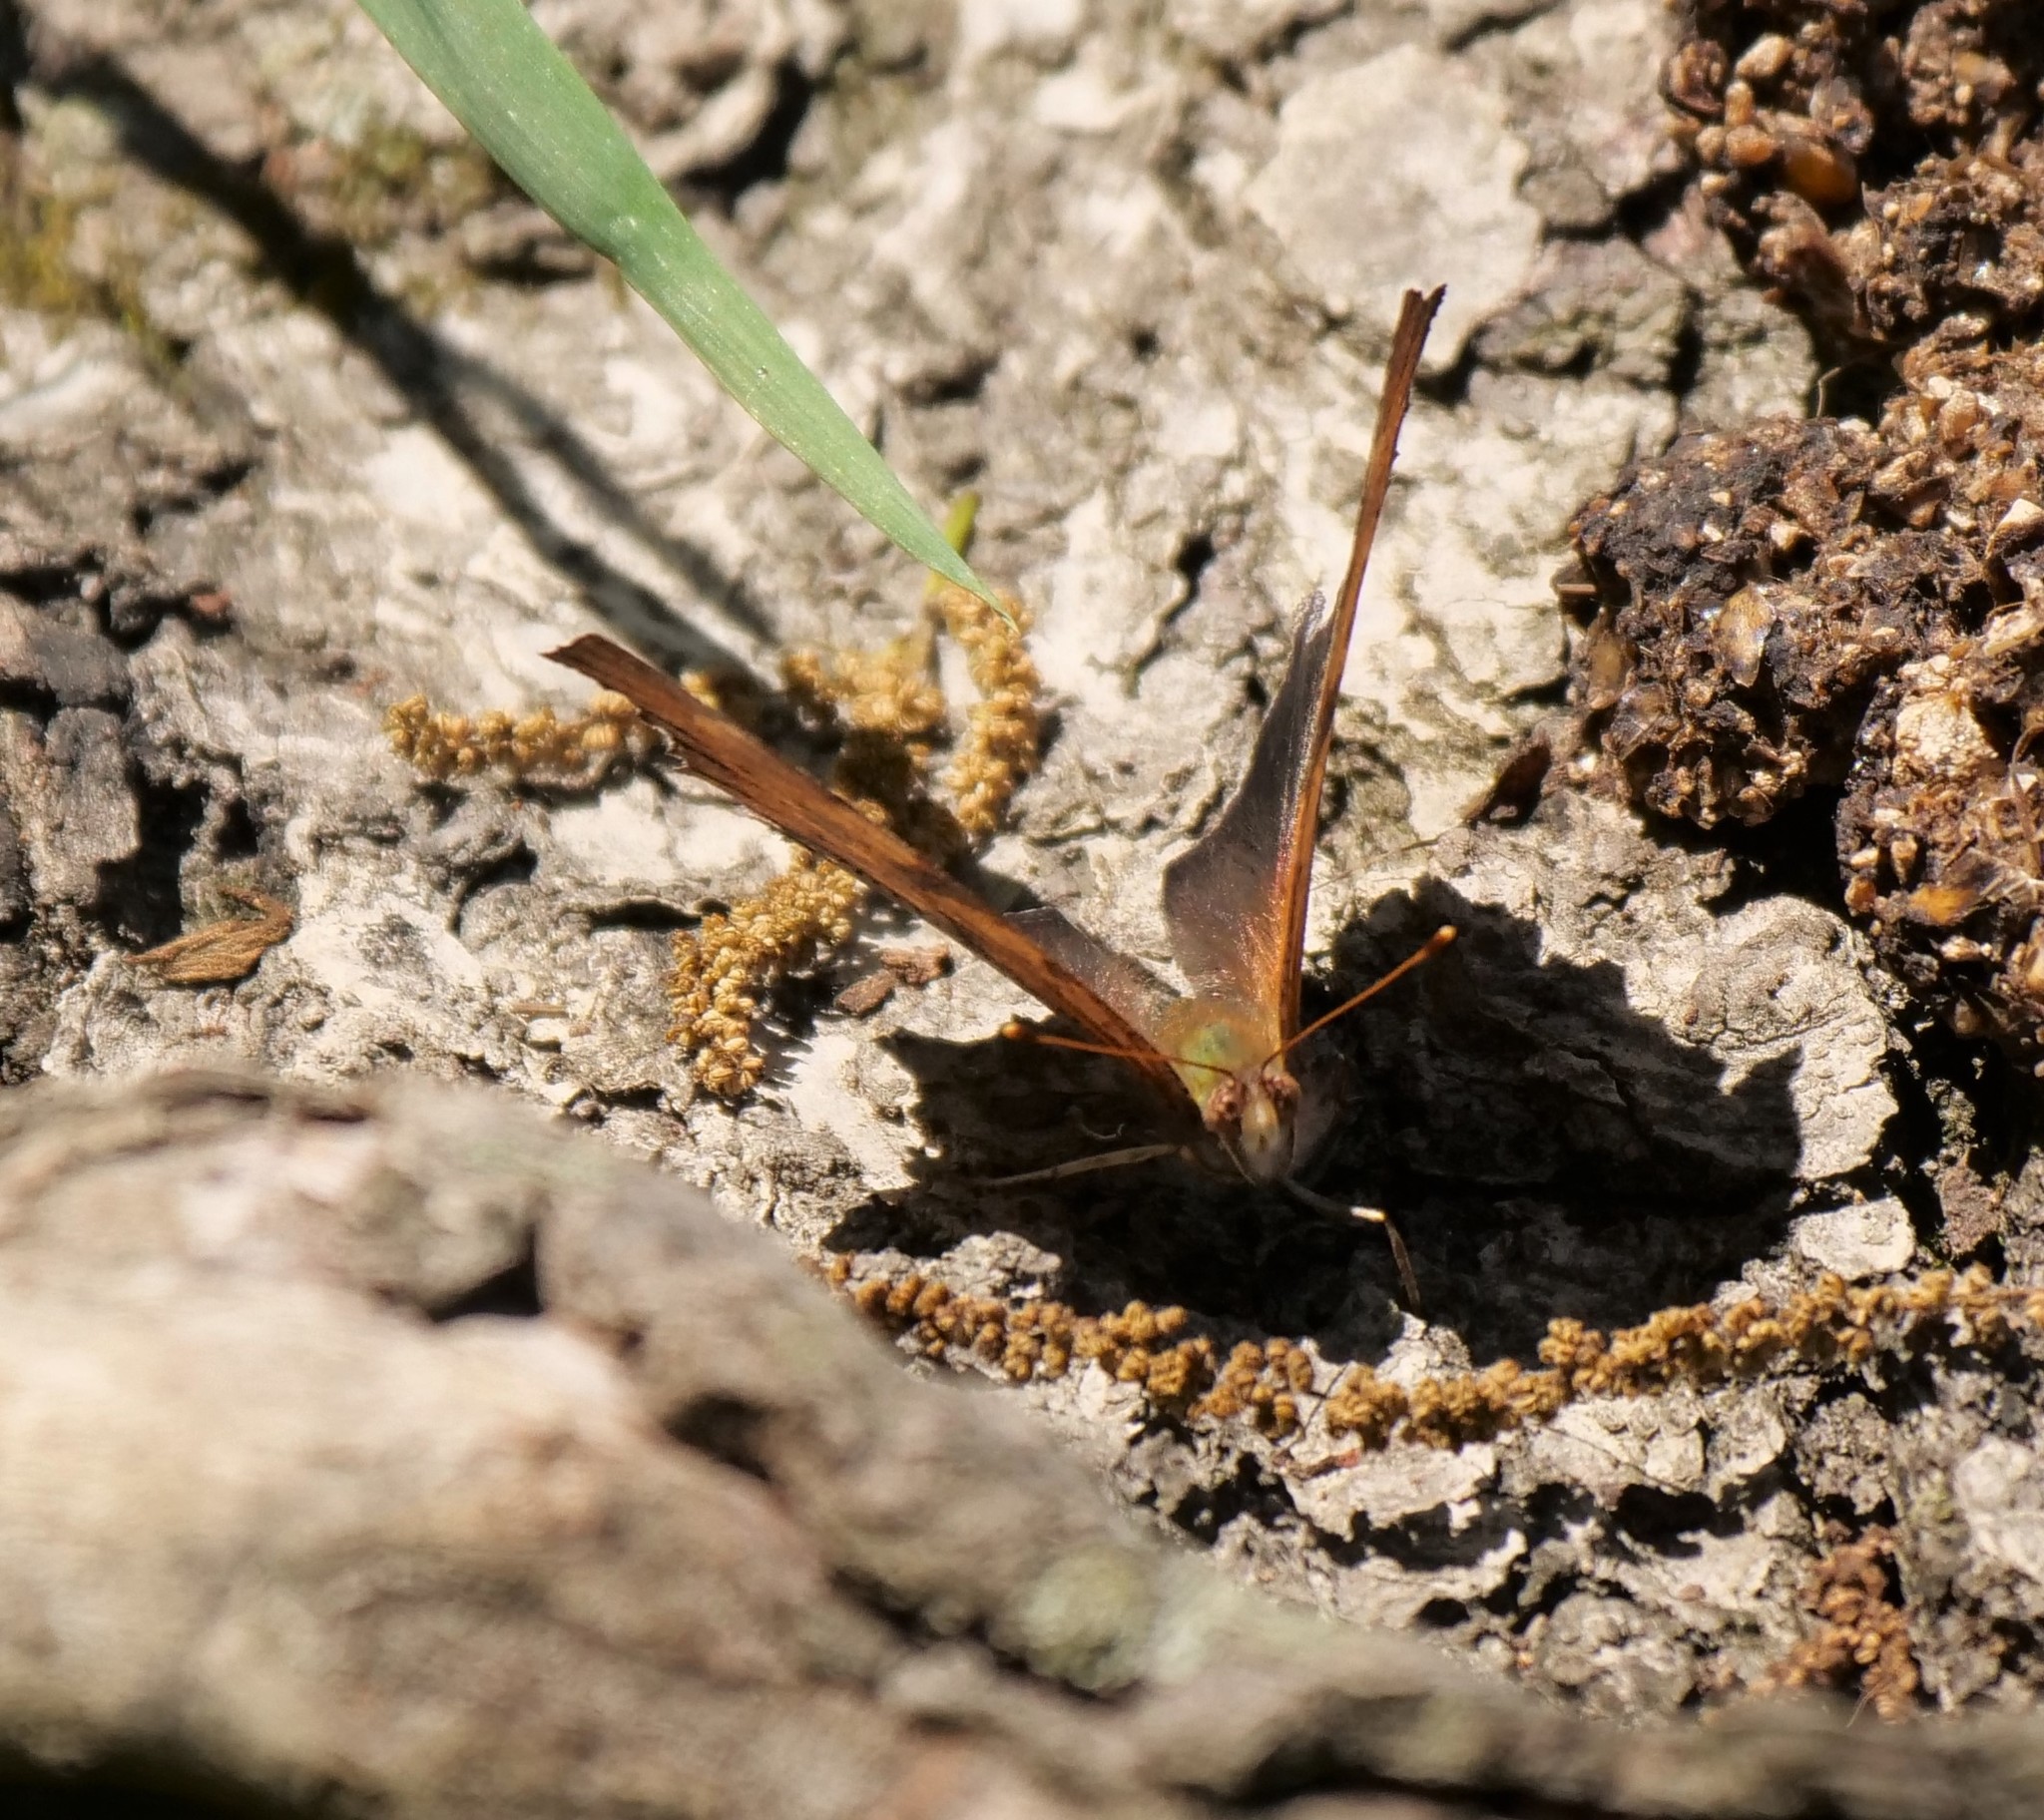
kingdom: Animalia
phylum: Arthropoda
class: Insecta
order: Lepidoptera
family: Nymphalidae
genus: Polygonia
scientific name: Polygonia interrogationis
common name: Question mark
